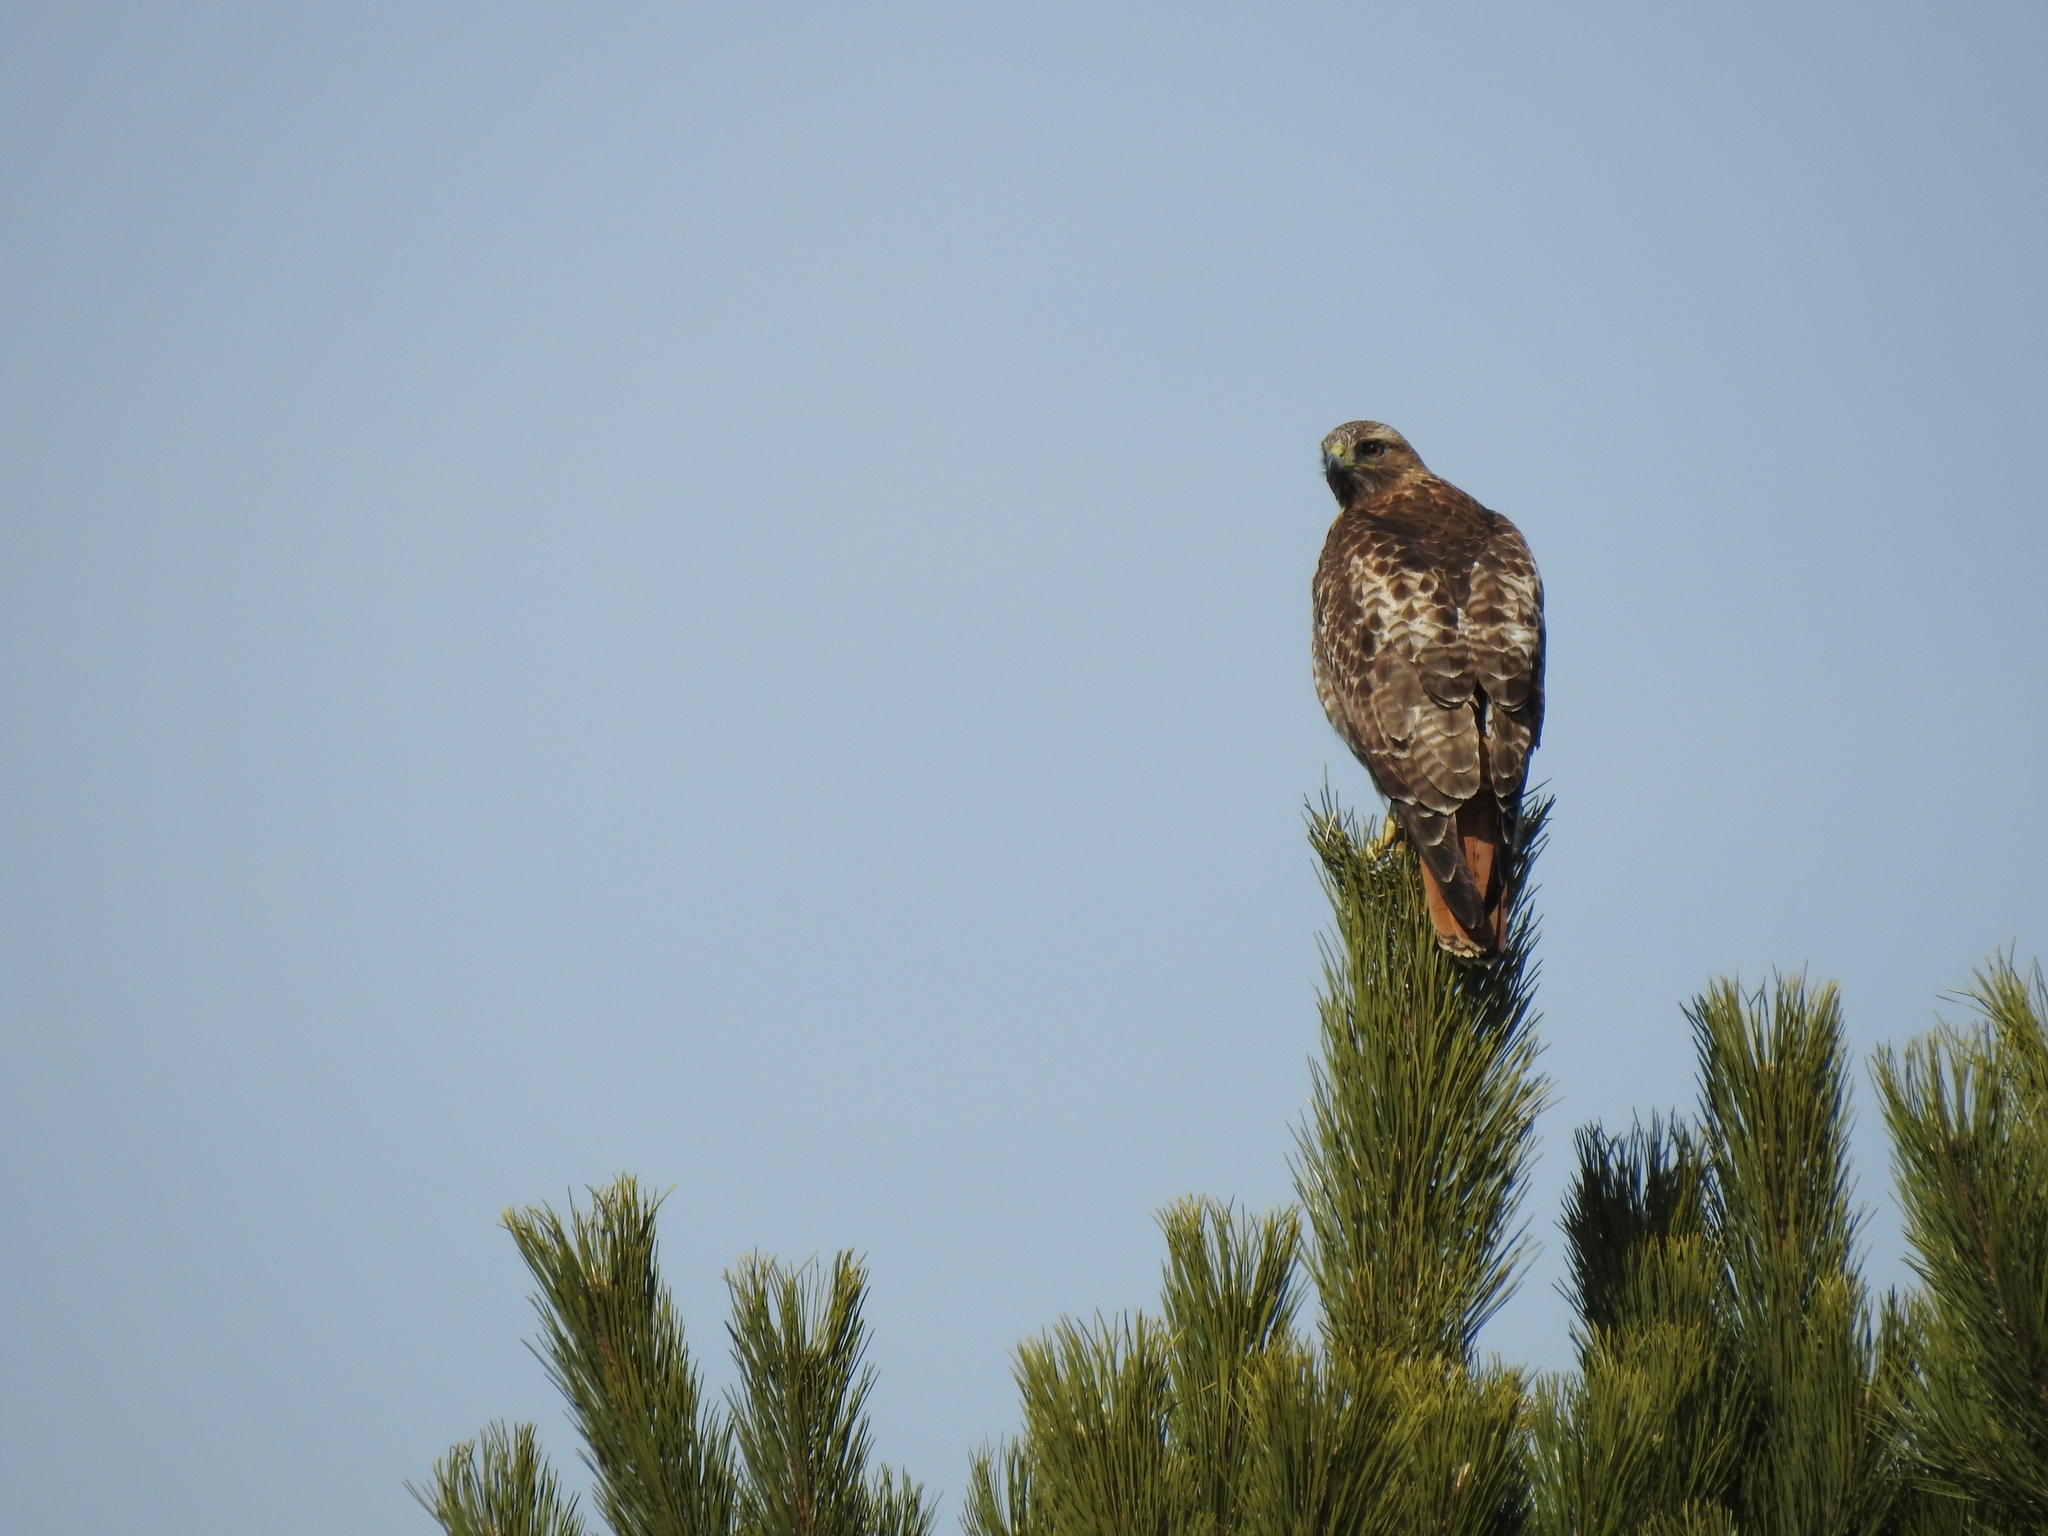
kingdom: Animalia
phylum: Chordata
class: Aves
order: Accipitriformes
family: Accipitridae
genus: Buteo
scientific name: Buteo jamaicensis
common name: Red-tailed hawk
